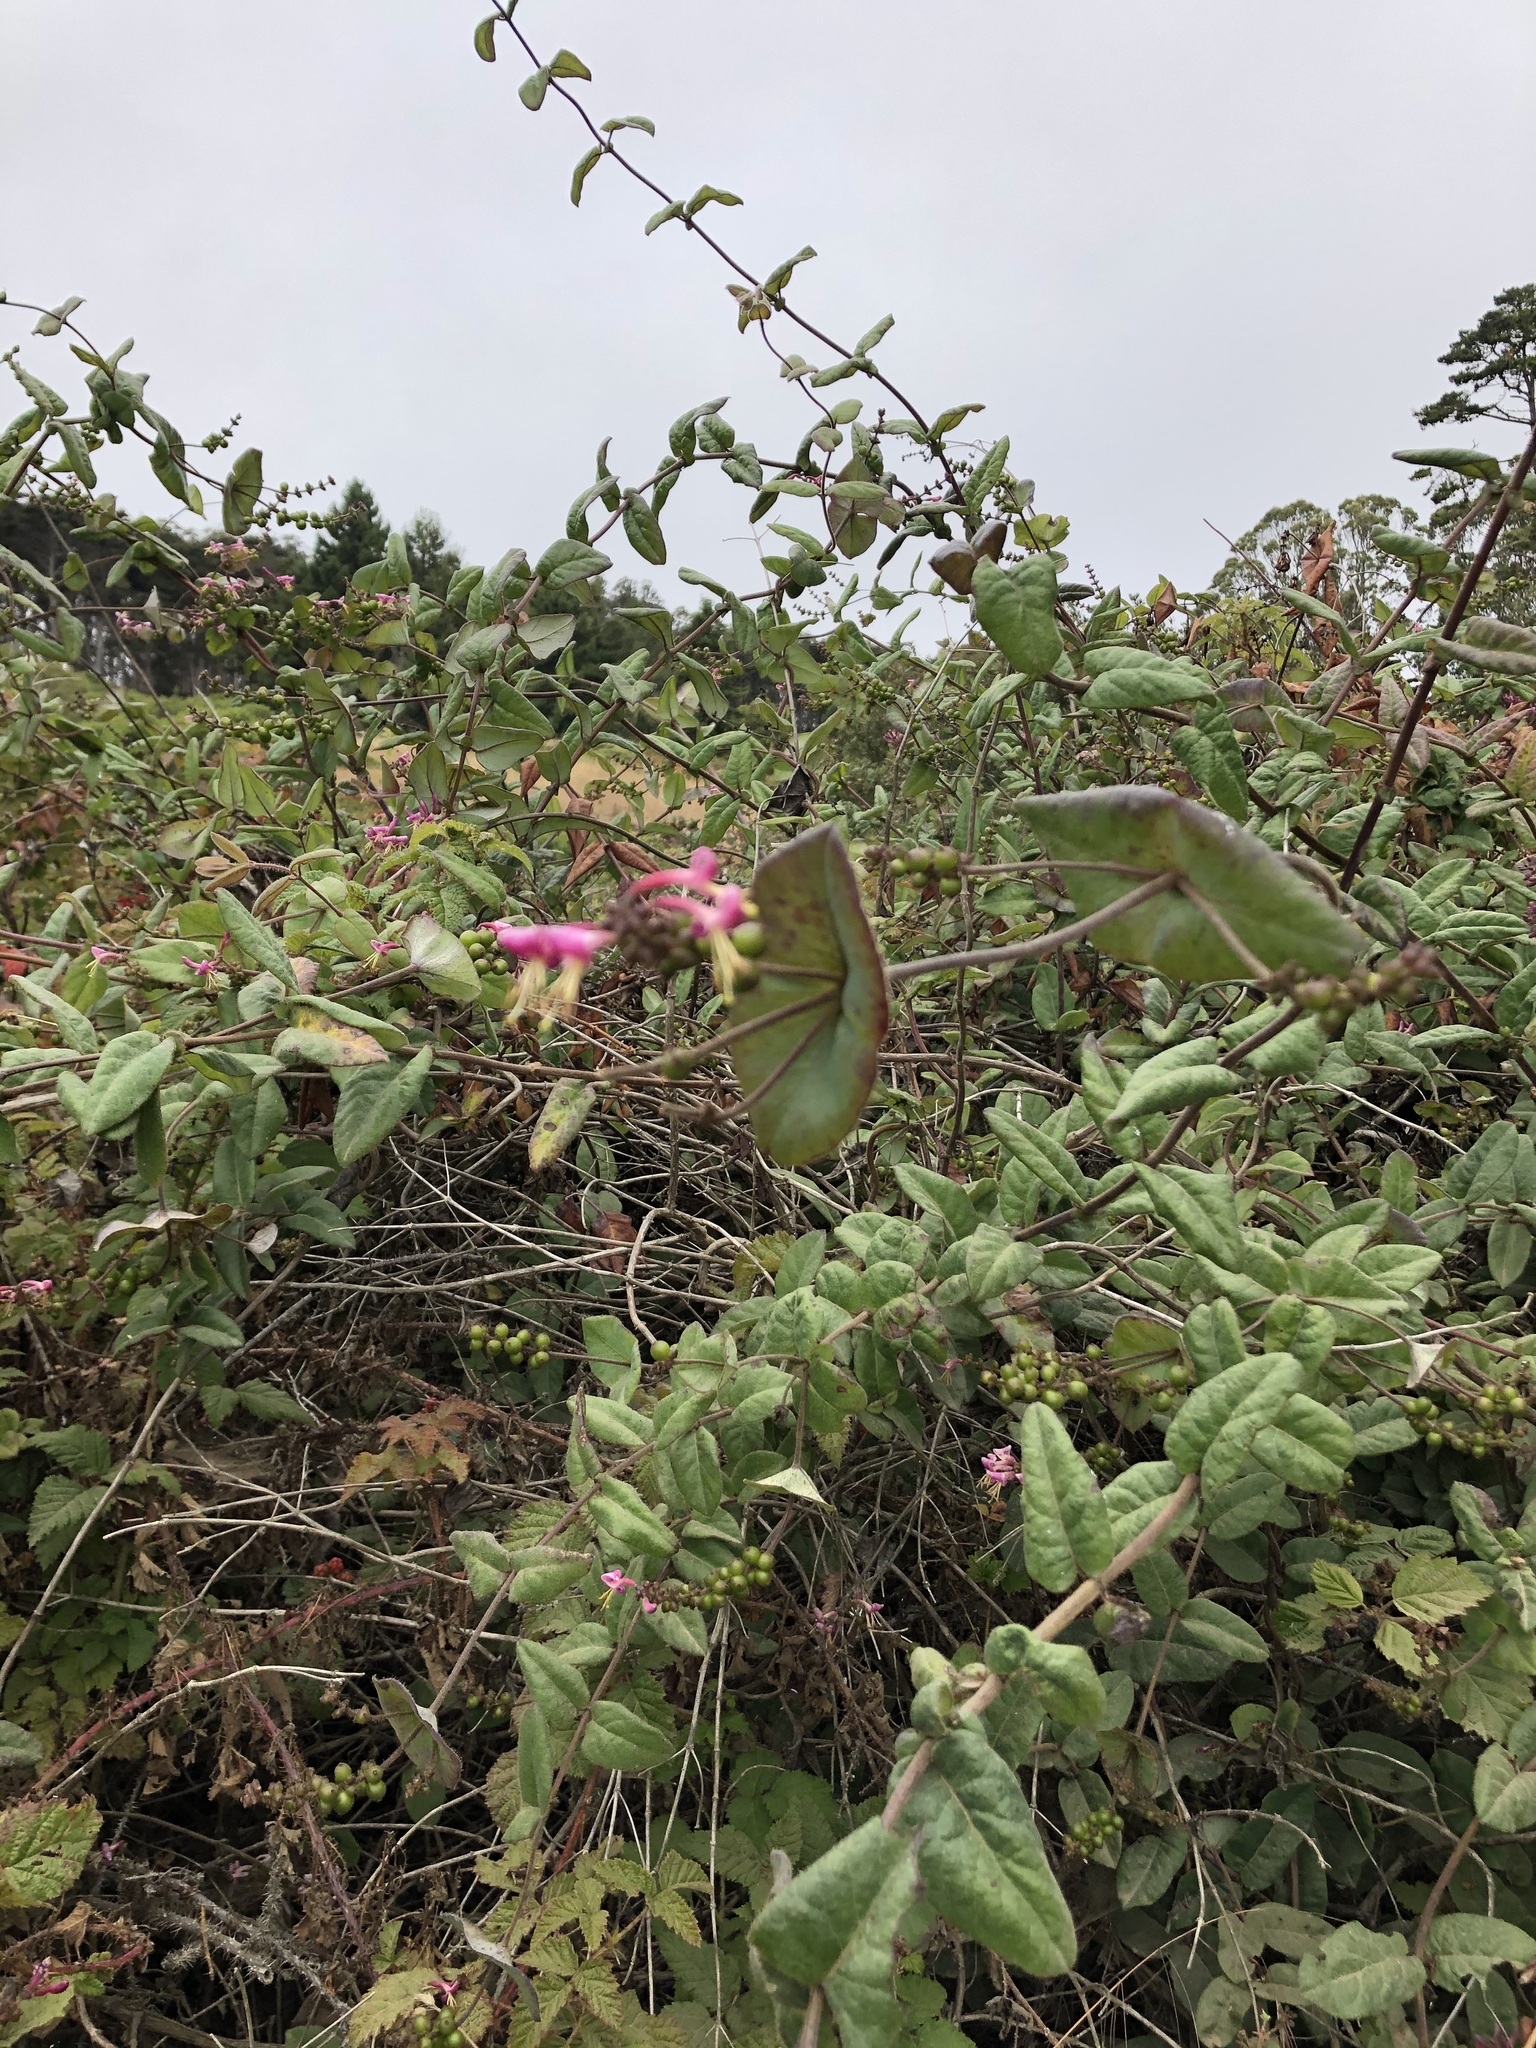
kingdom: Plantae
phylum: Tracheophyta
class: Magnoliopsida
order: Dipsacales
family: Caprifoliaceae
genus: Lonicera
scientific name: Lonicera hispidula
